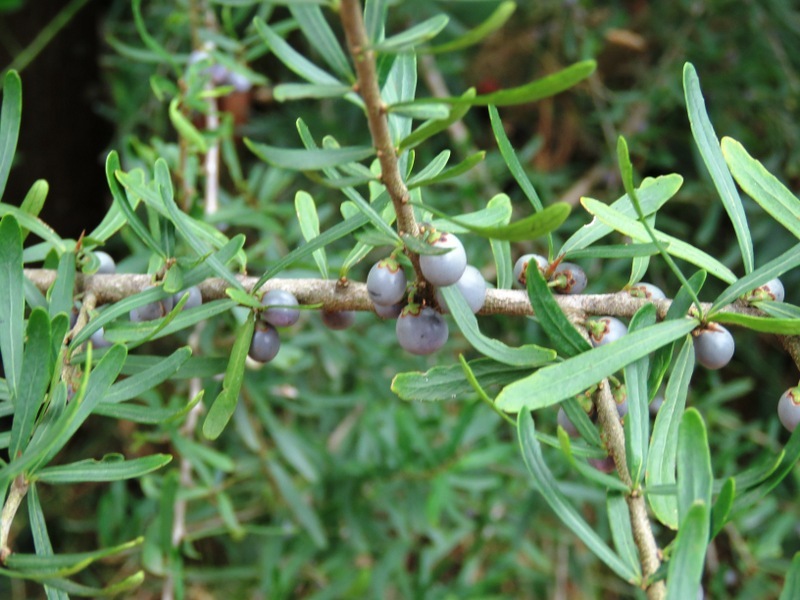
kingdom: Plantae
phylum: Tracheophyta
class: Magnoliopsida
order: Malpighiales
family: Violaceae
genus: Melicytus
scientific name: Melicytus dentatus
